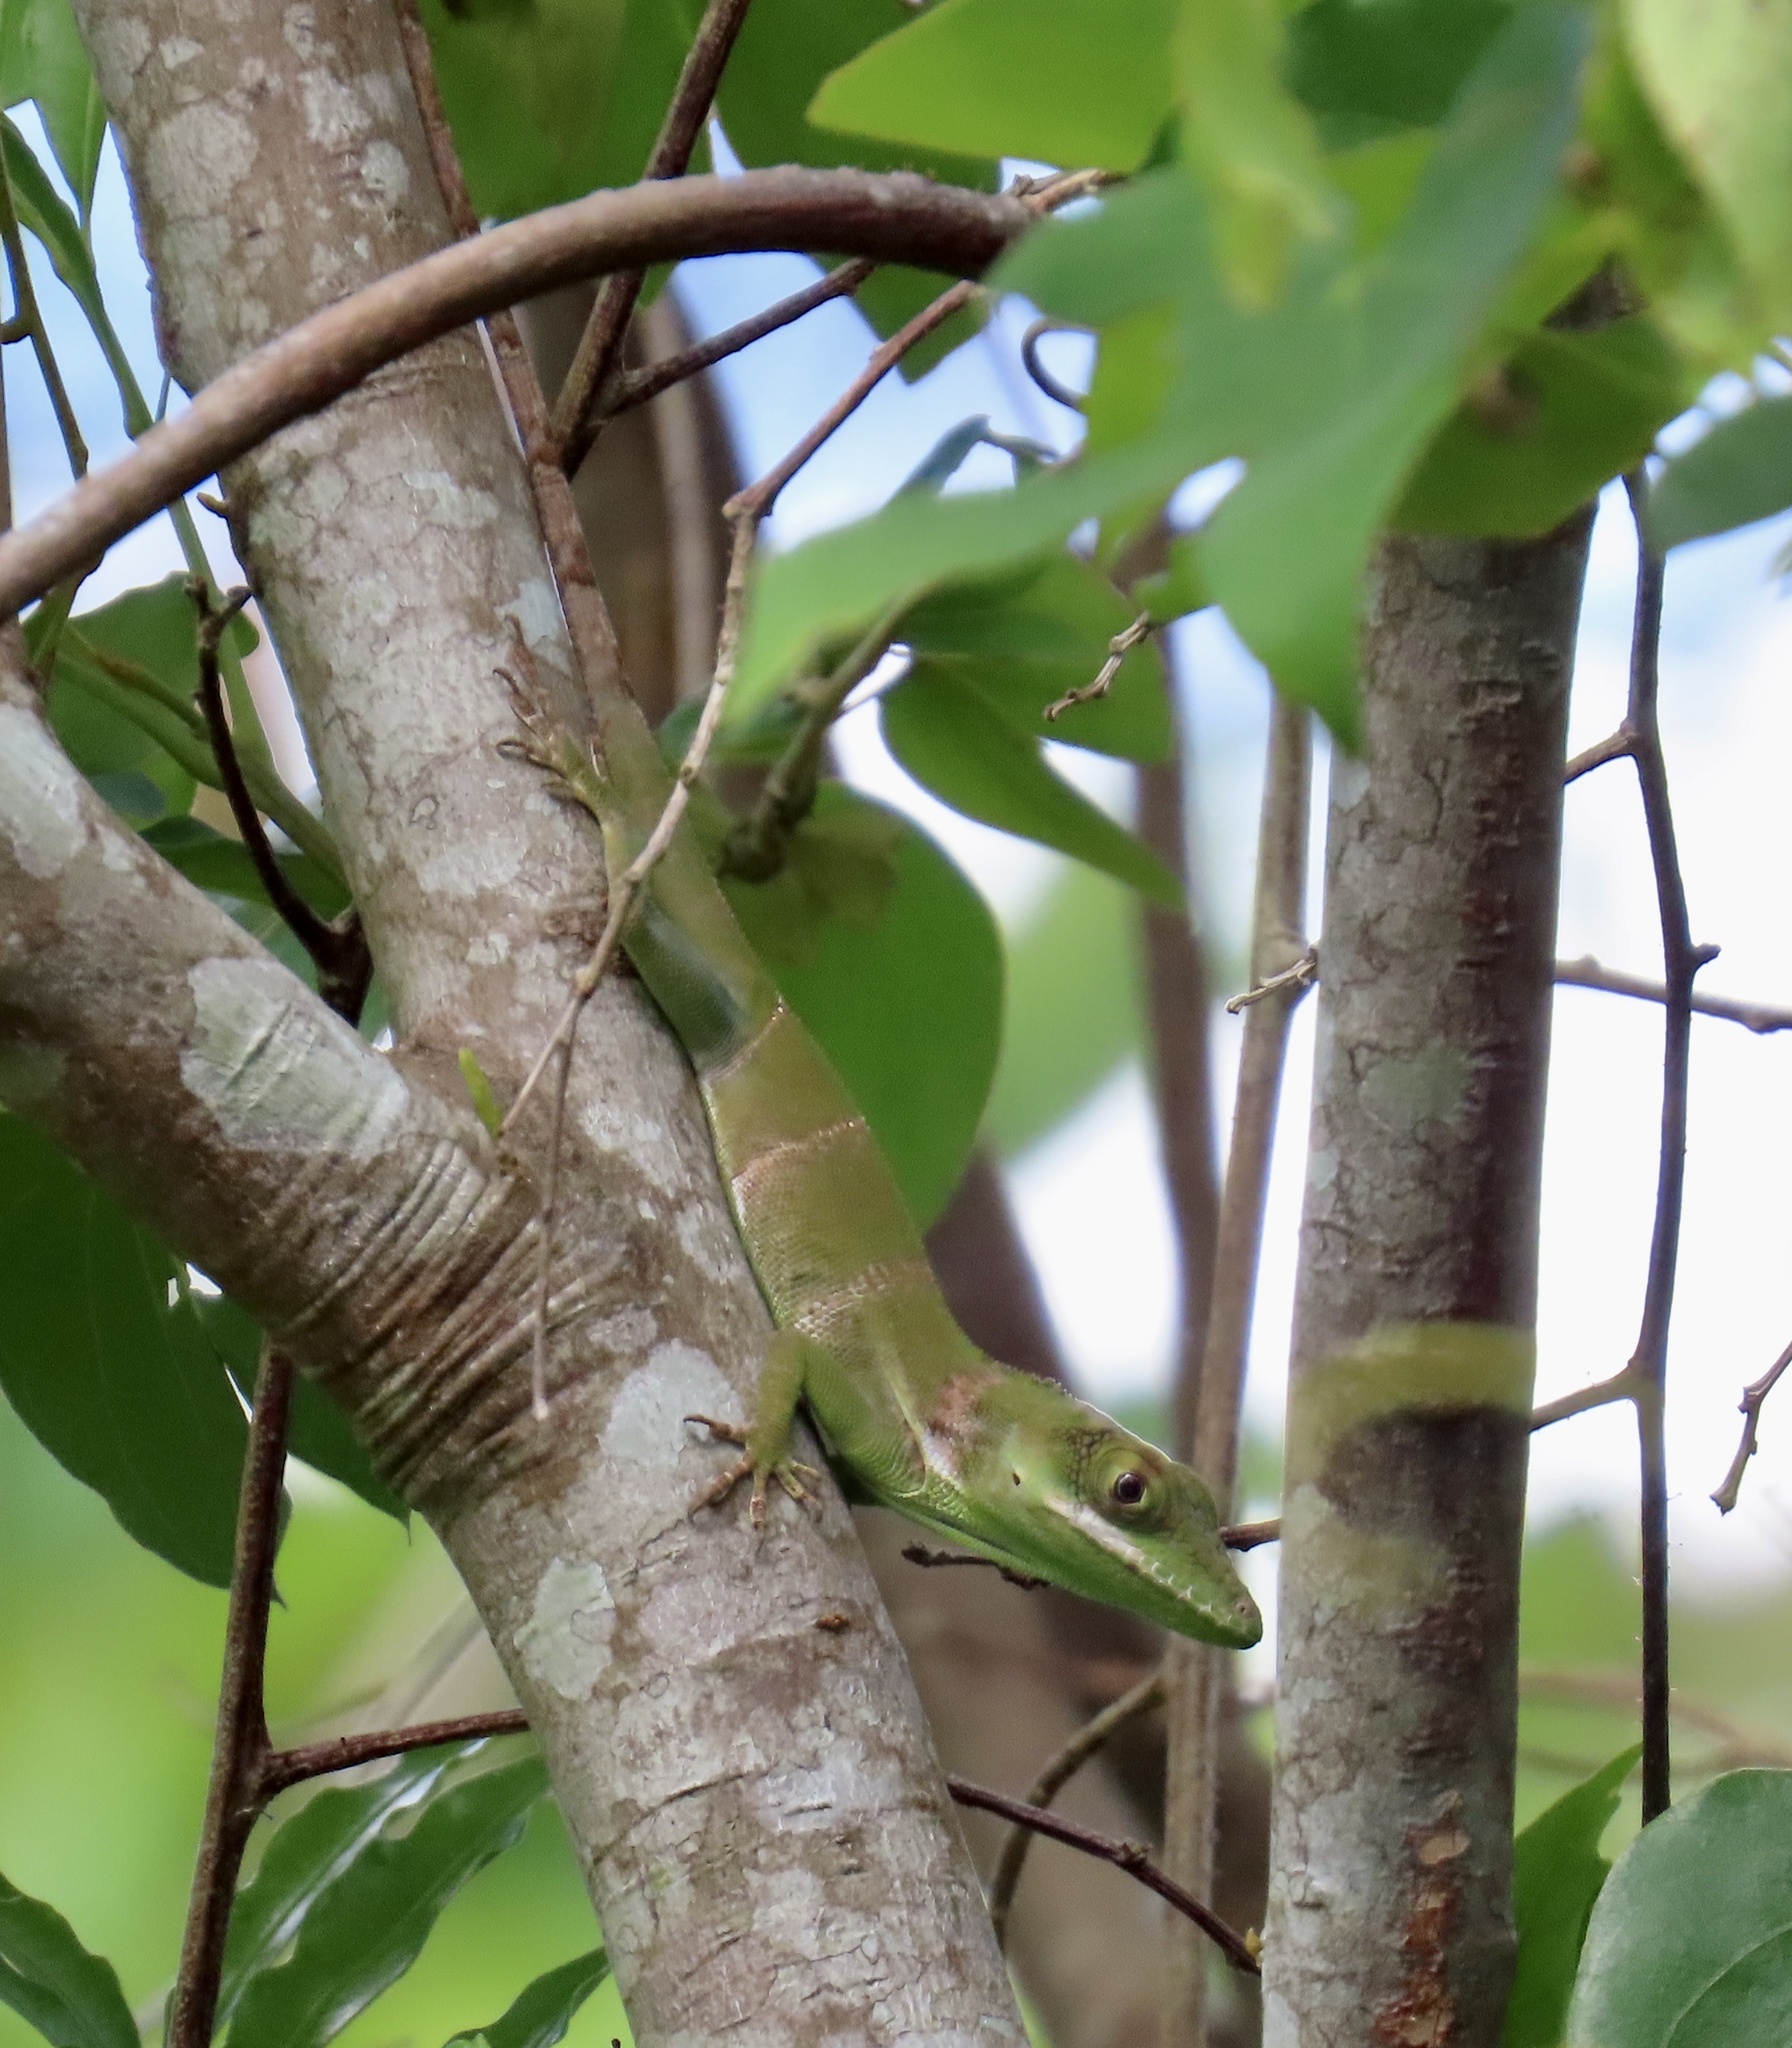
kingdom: Animalia
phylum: Chordata
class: Squamata
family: Dactyloidae
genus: Anolis
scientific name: Anolis luteogularis
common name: Western giant anole
